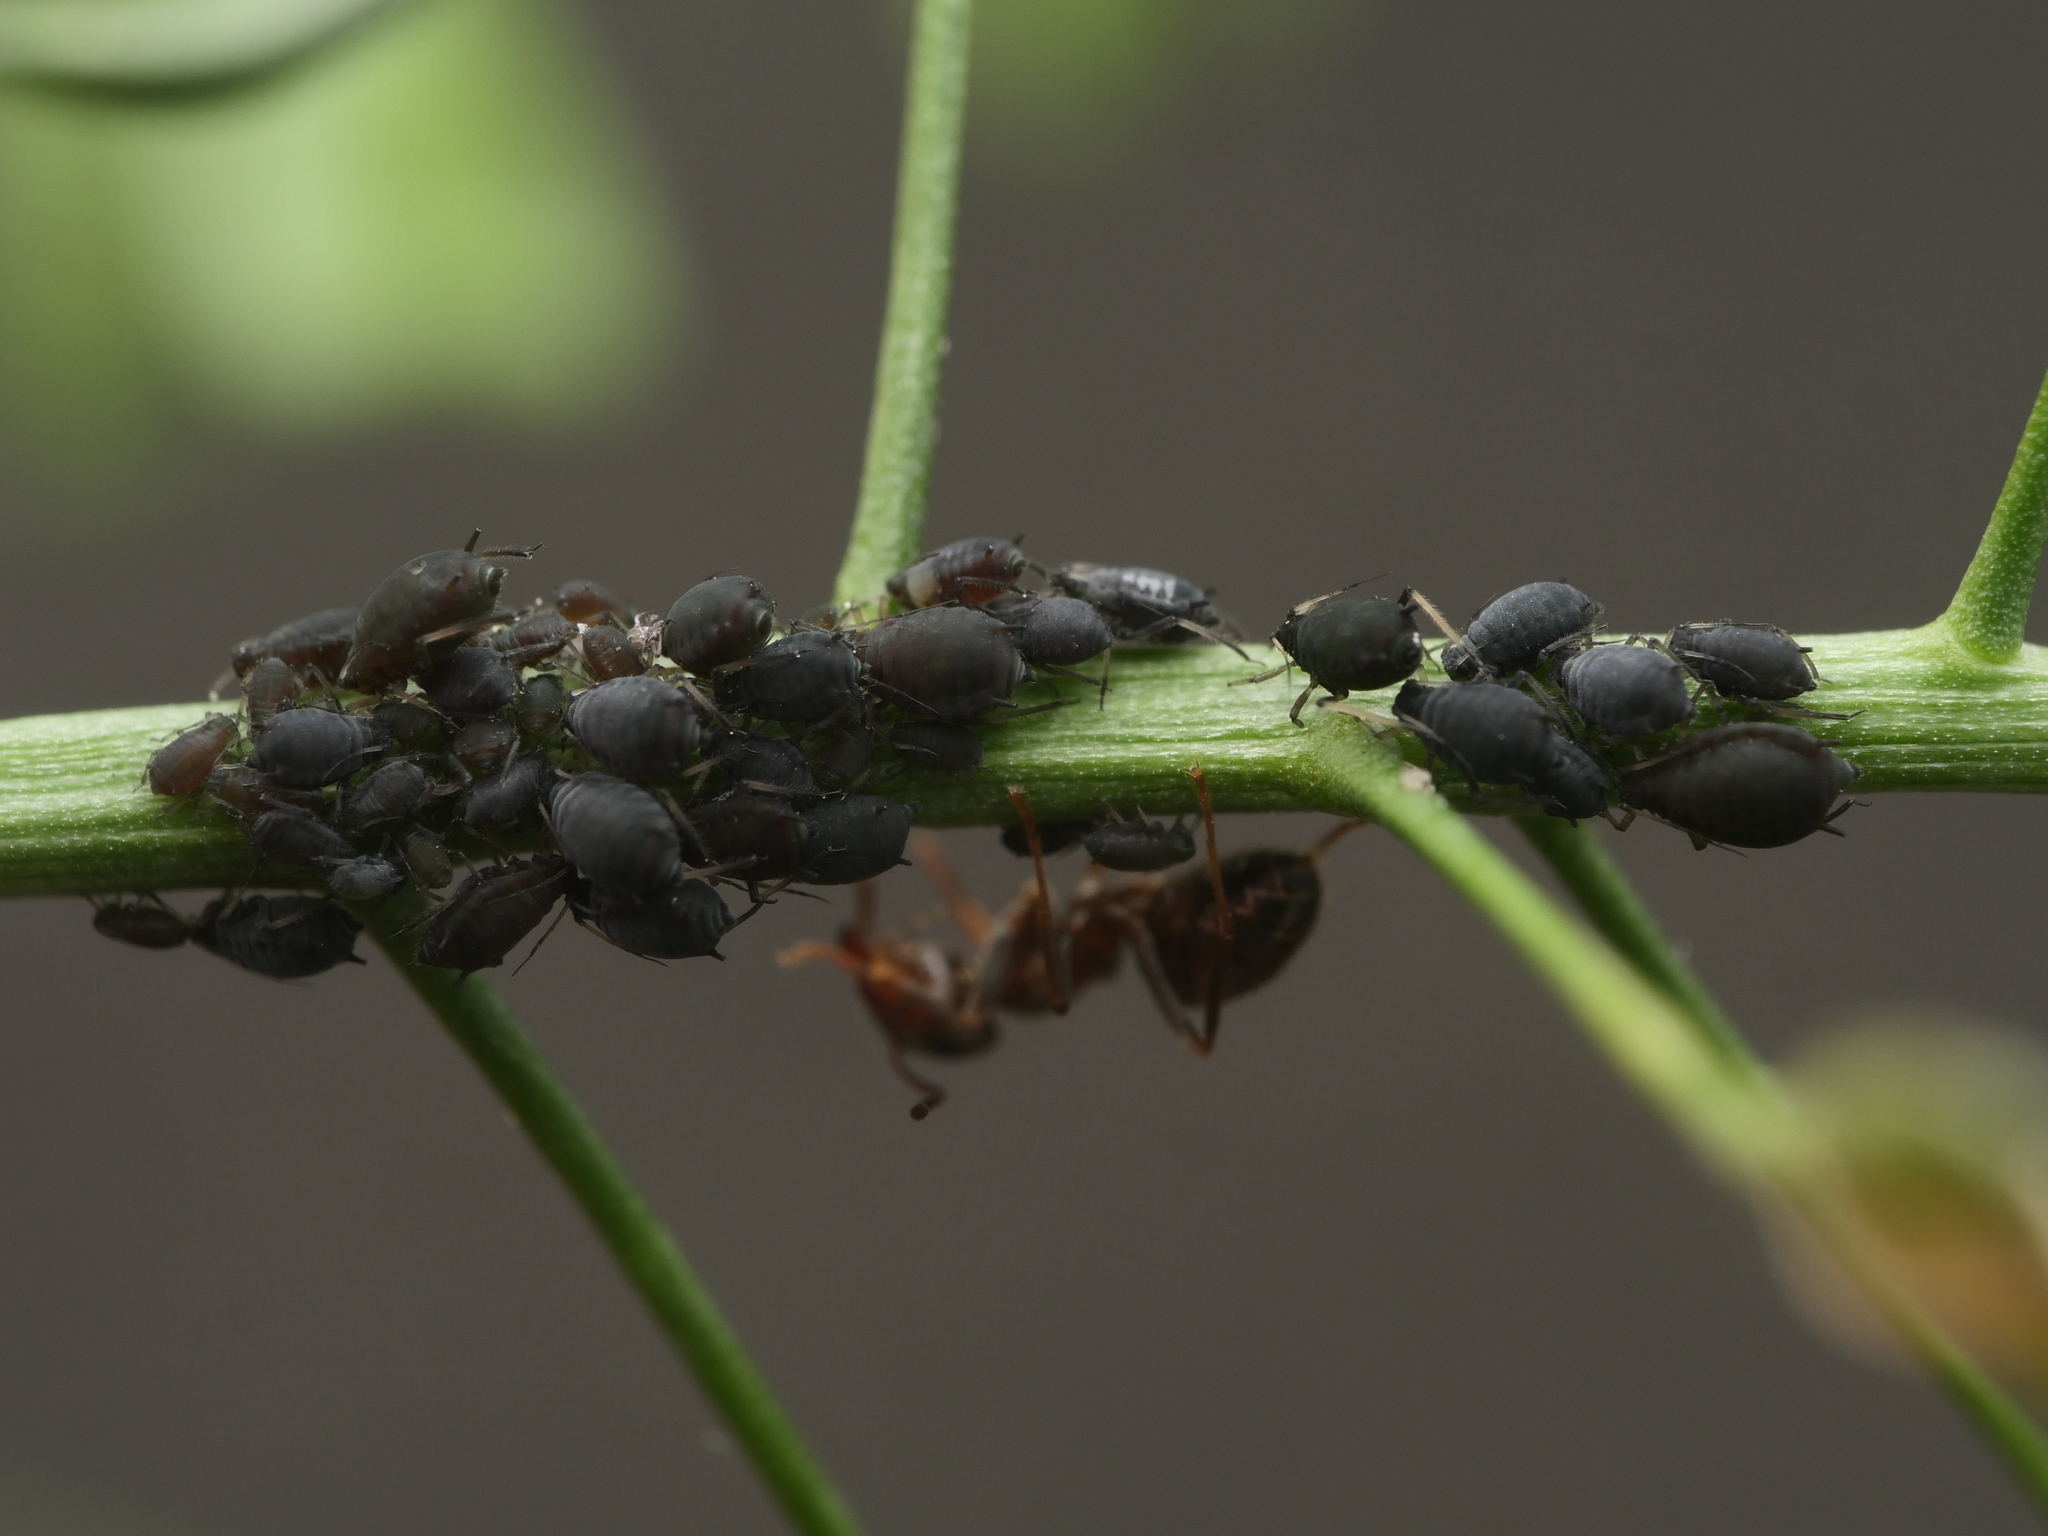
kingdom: Animalia
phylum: Arthropoda
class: Insecta
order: Hemiptera
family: Aphididae
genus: Aphis
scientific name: Aphis fabae
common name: Bean aphid
